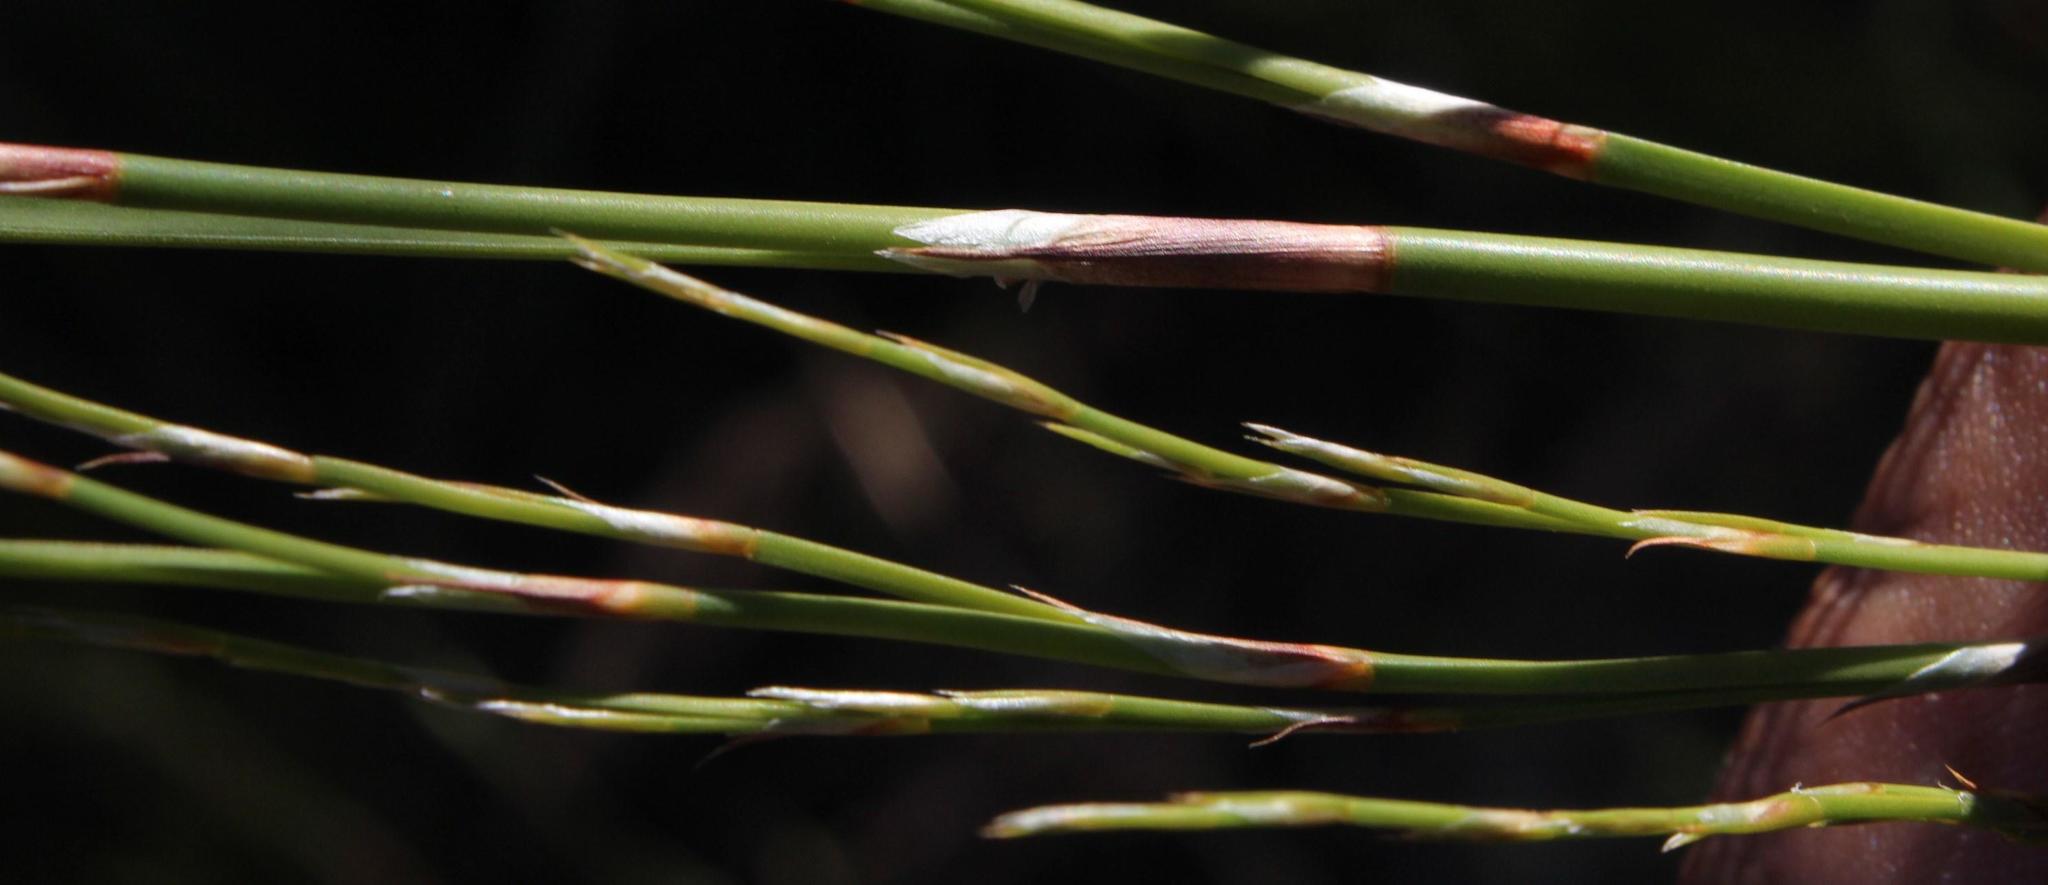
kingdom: Plantae
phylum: Tracheophyta
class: Liliopsida
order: Poales
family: Restionaceae
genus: Restio
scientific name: Restio paniculatus
